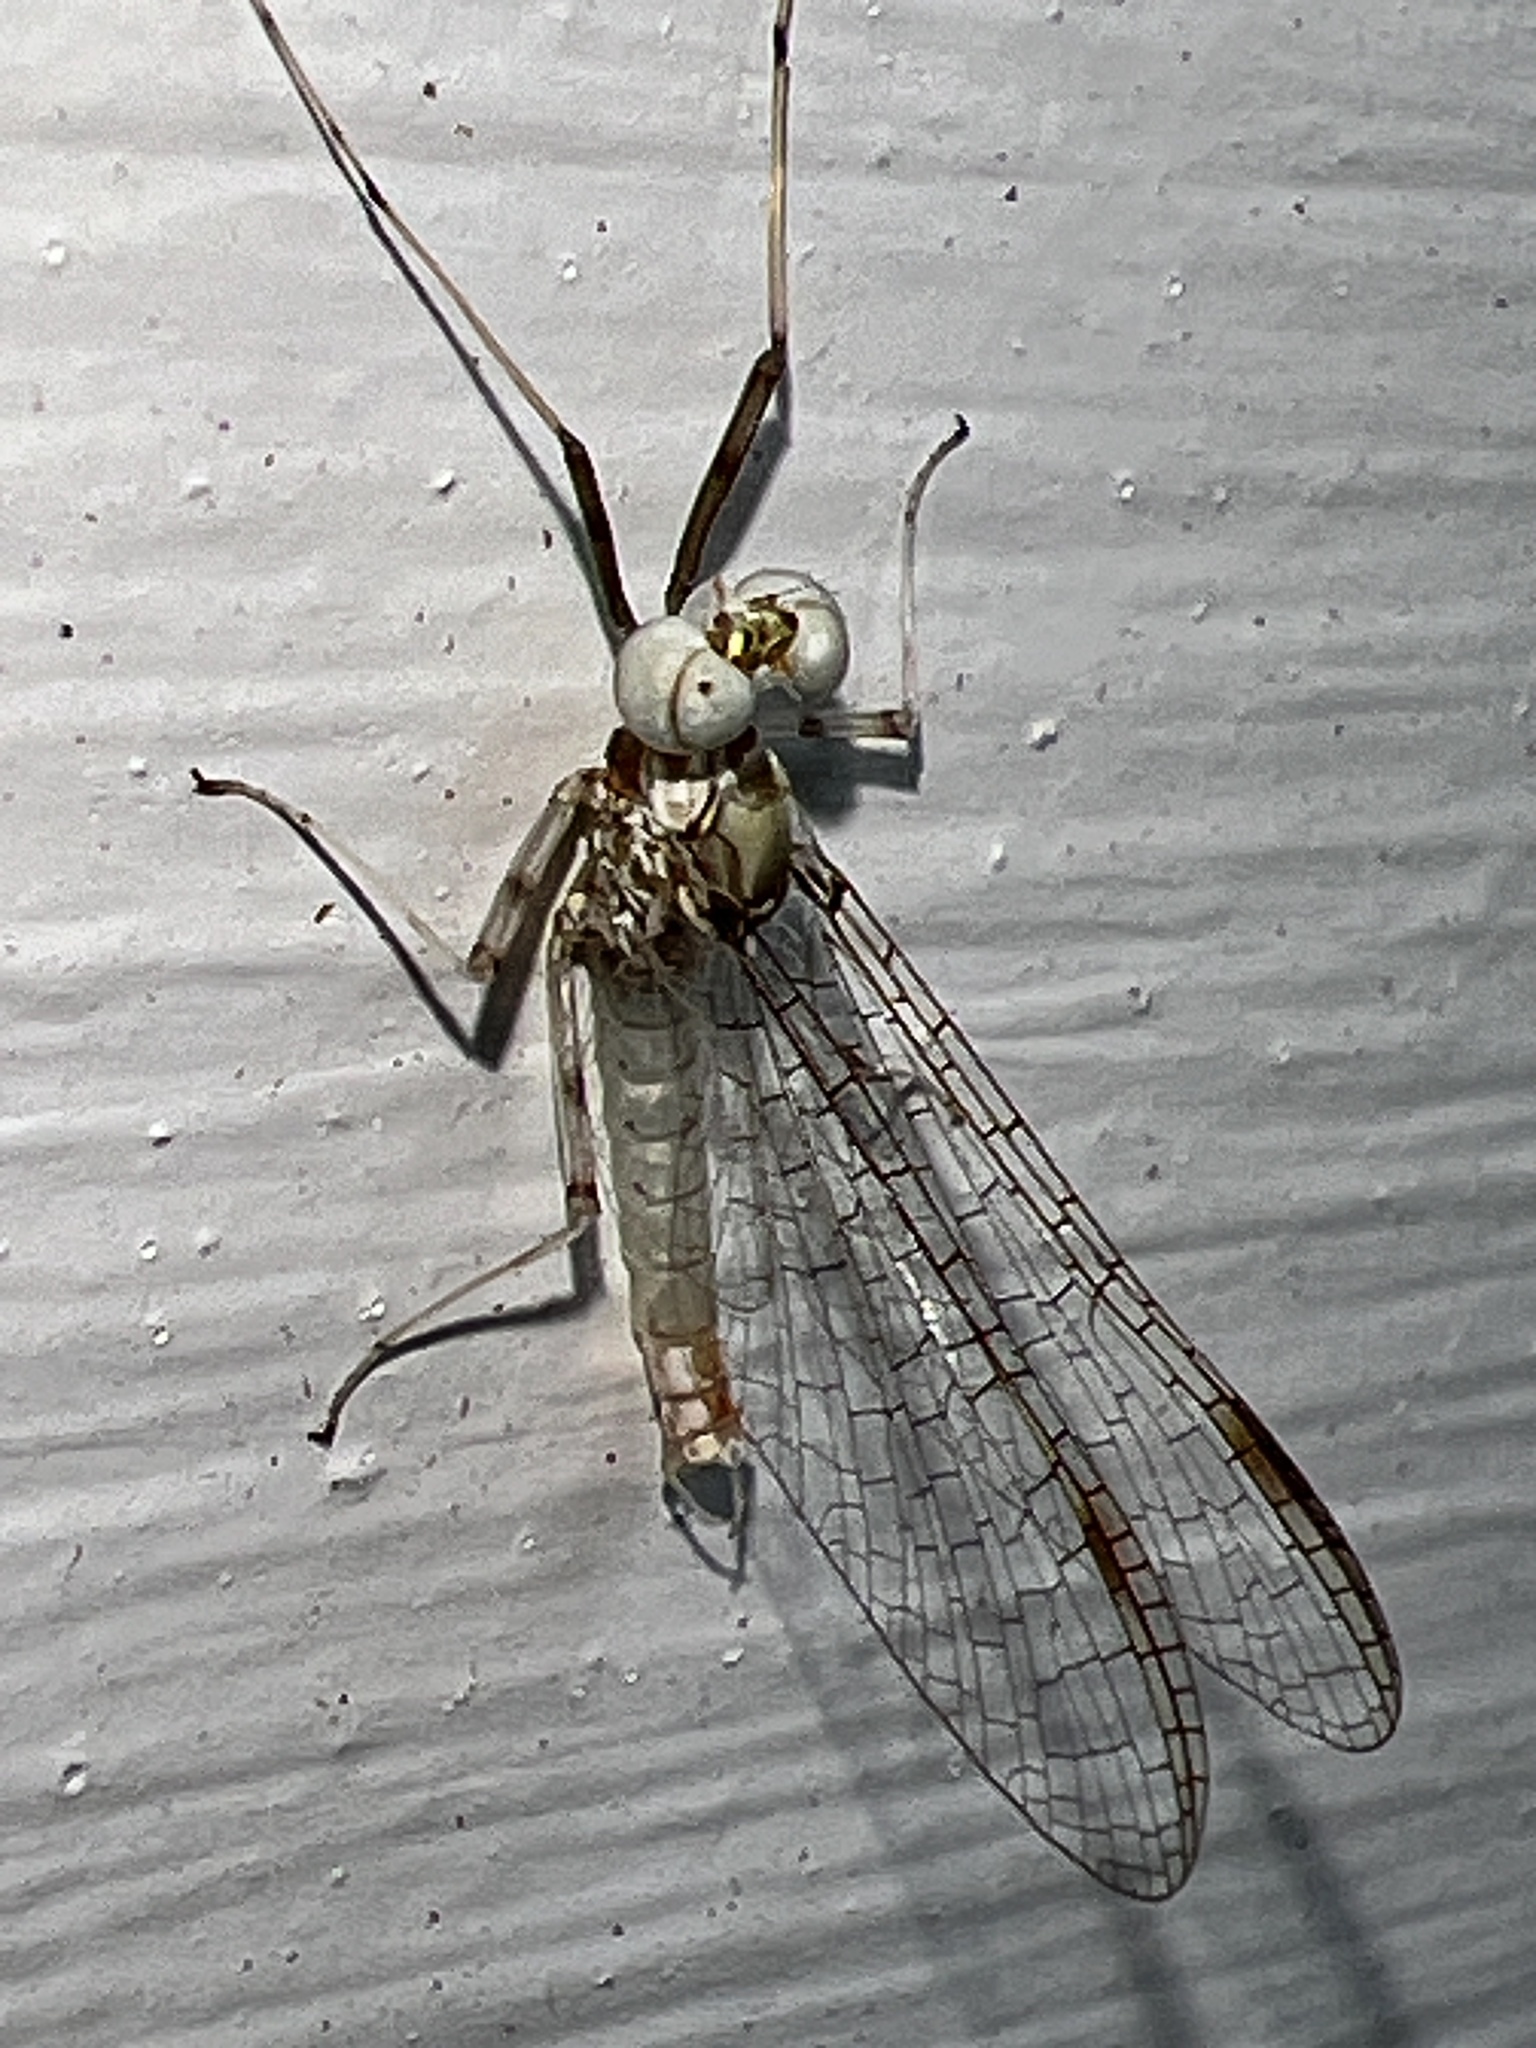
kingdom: Animalia
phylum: Arthropoda
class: Insecta
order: Ephemeroptera
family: Heptageniidae
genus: Stenonema
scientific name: Stenonema femoratum
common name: Dark cahill
